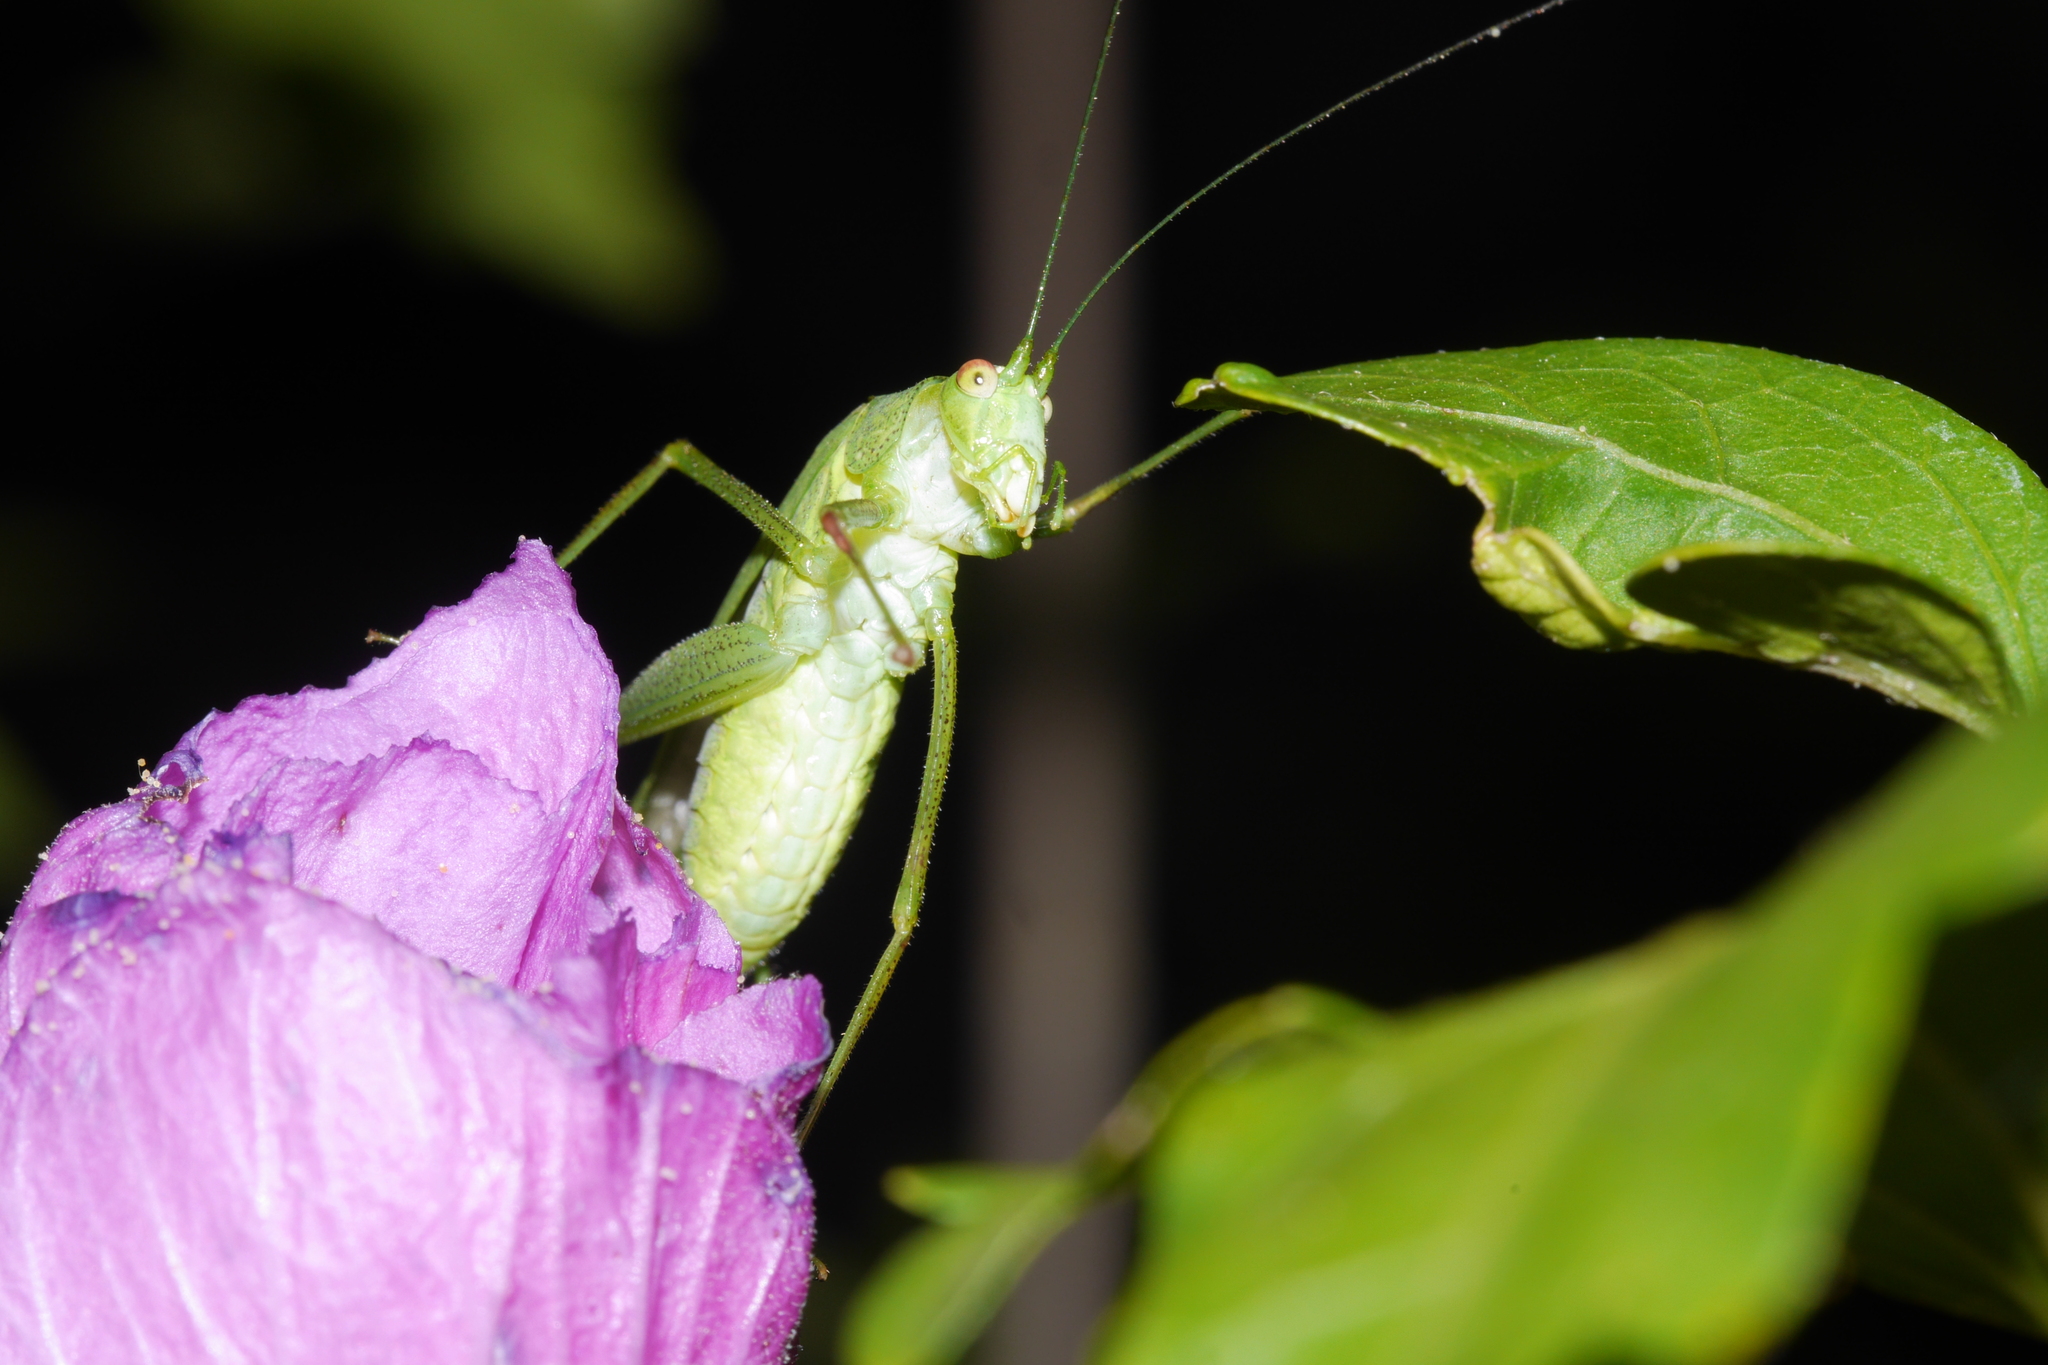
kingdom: Animalia
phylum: Arthropoda
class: Insecta
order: Orthoptera
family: Tettigoniidae
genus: Phaneroptera
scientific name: Phaneroptera nana
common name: Southern sickle bush-cricket
